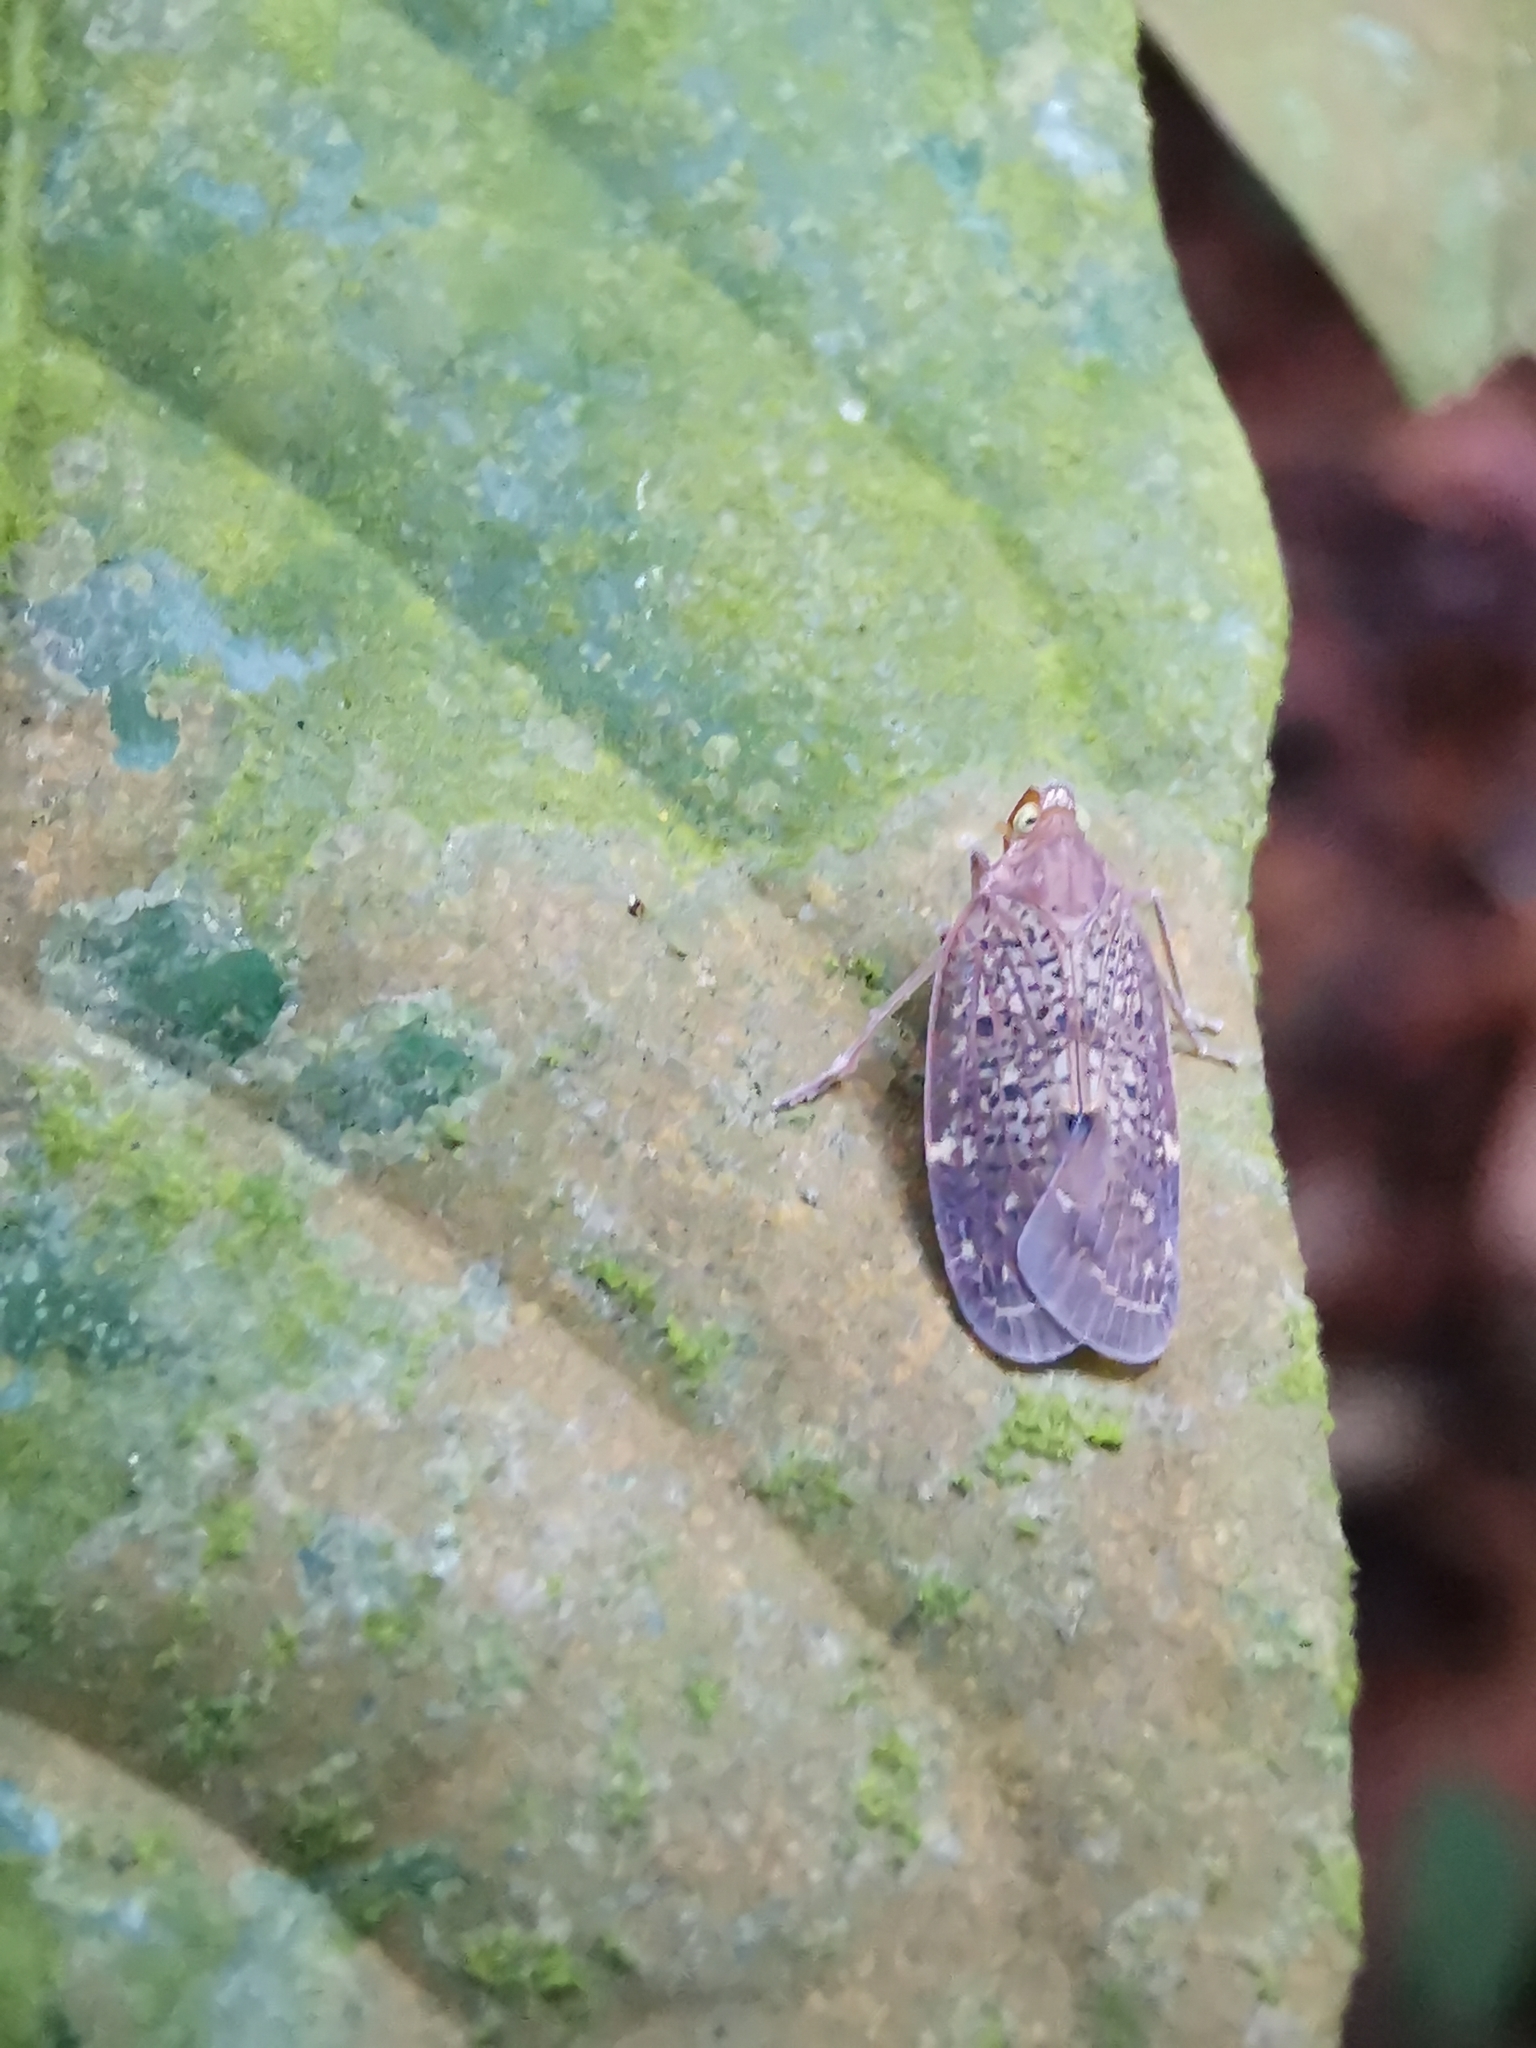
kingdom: Animalia
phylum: Arthropoda
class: Insecta
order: Hemiptera
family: Achilidae
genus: Faventilla
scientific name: Faventilla pustulata
